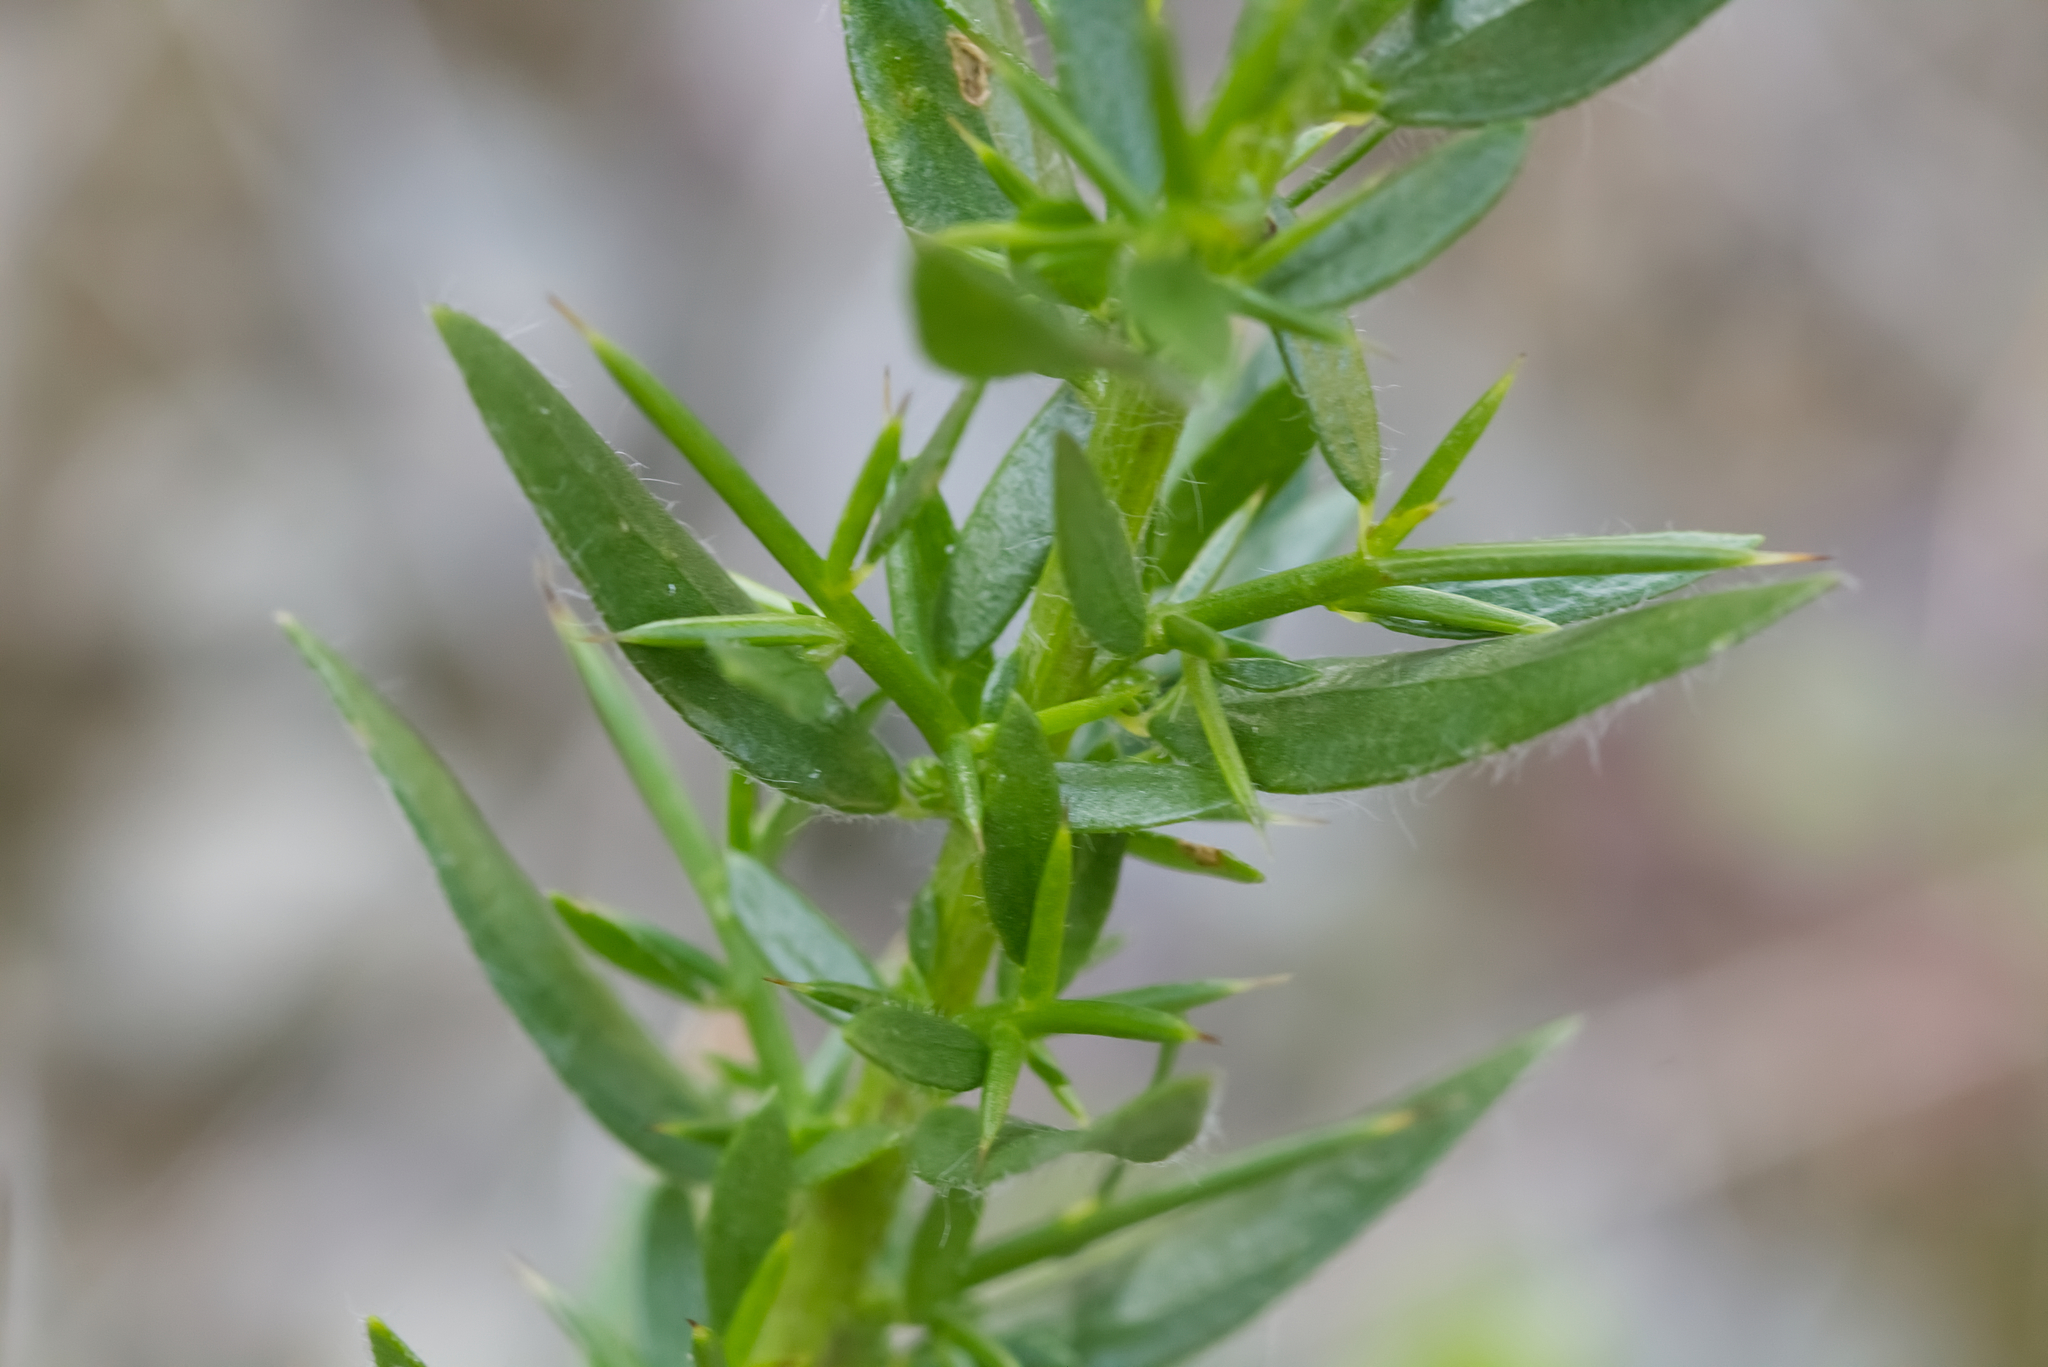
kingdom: Plantae
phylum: Tracheophyta
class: Magnoliopsida
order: Fabales
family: Fabaceae
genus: Genista
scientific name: Genista germanica
